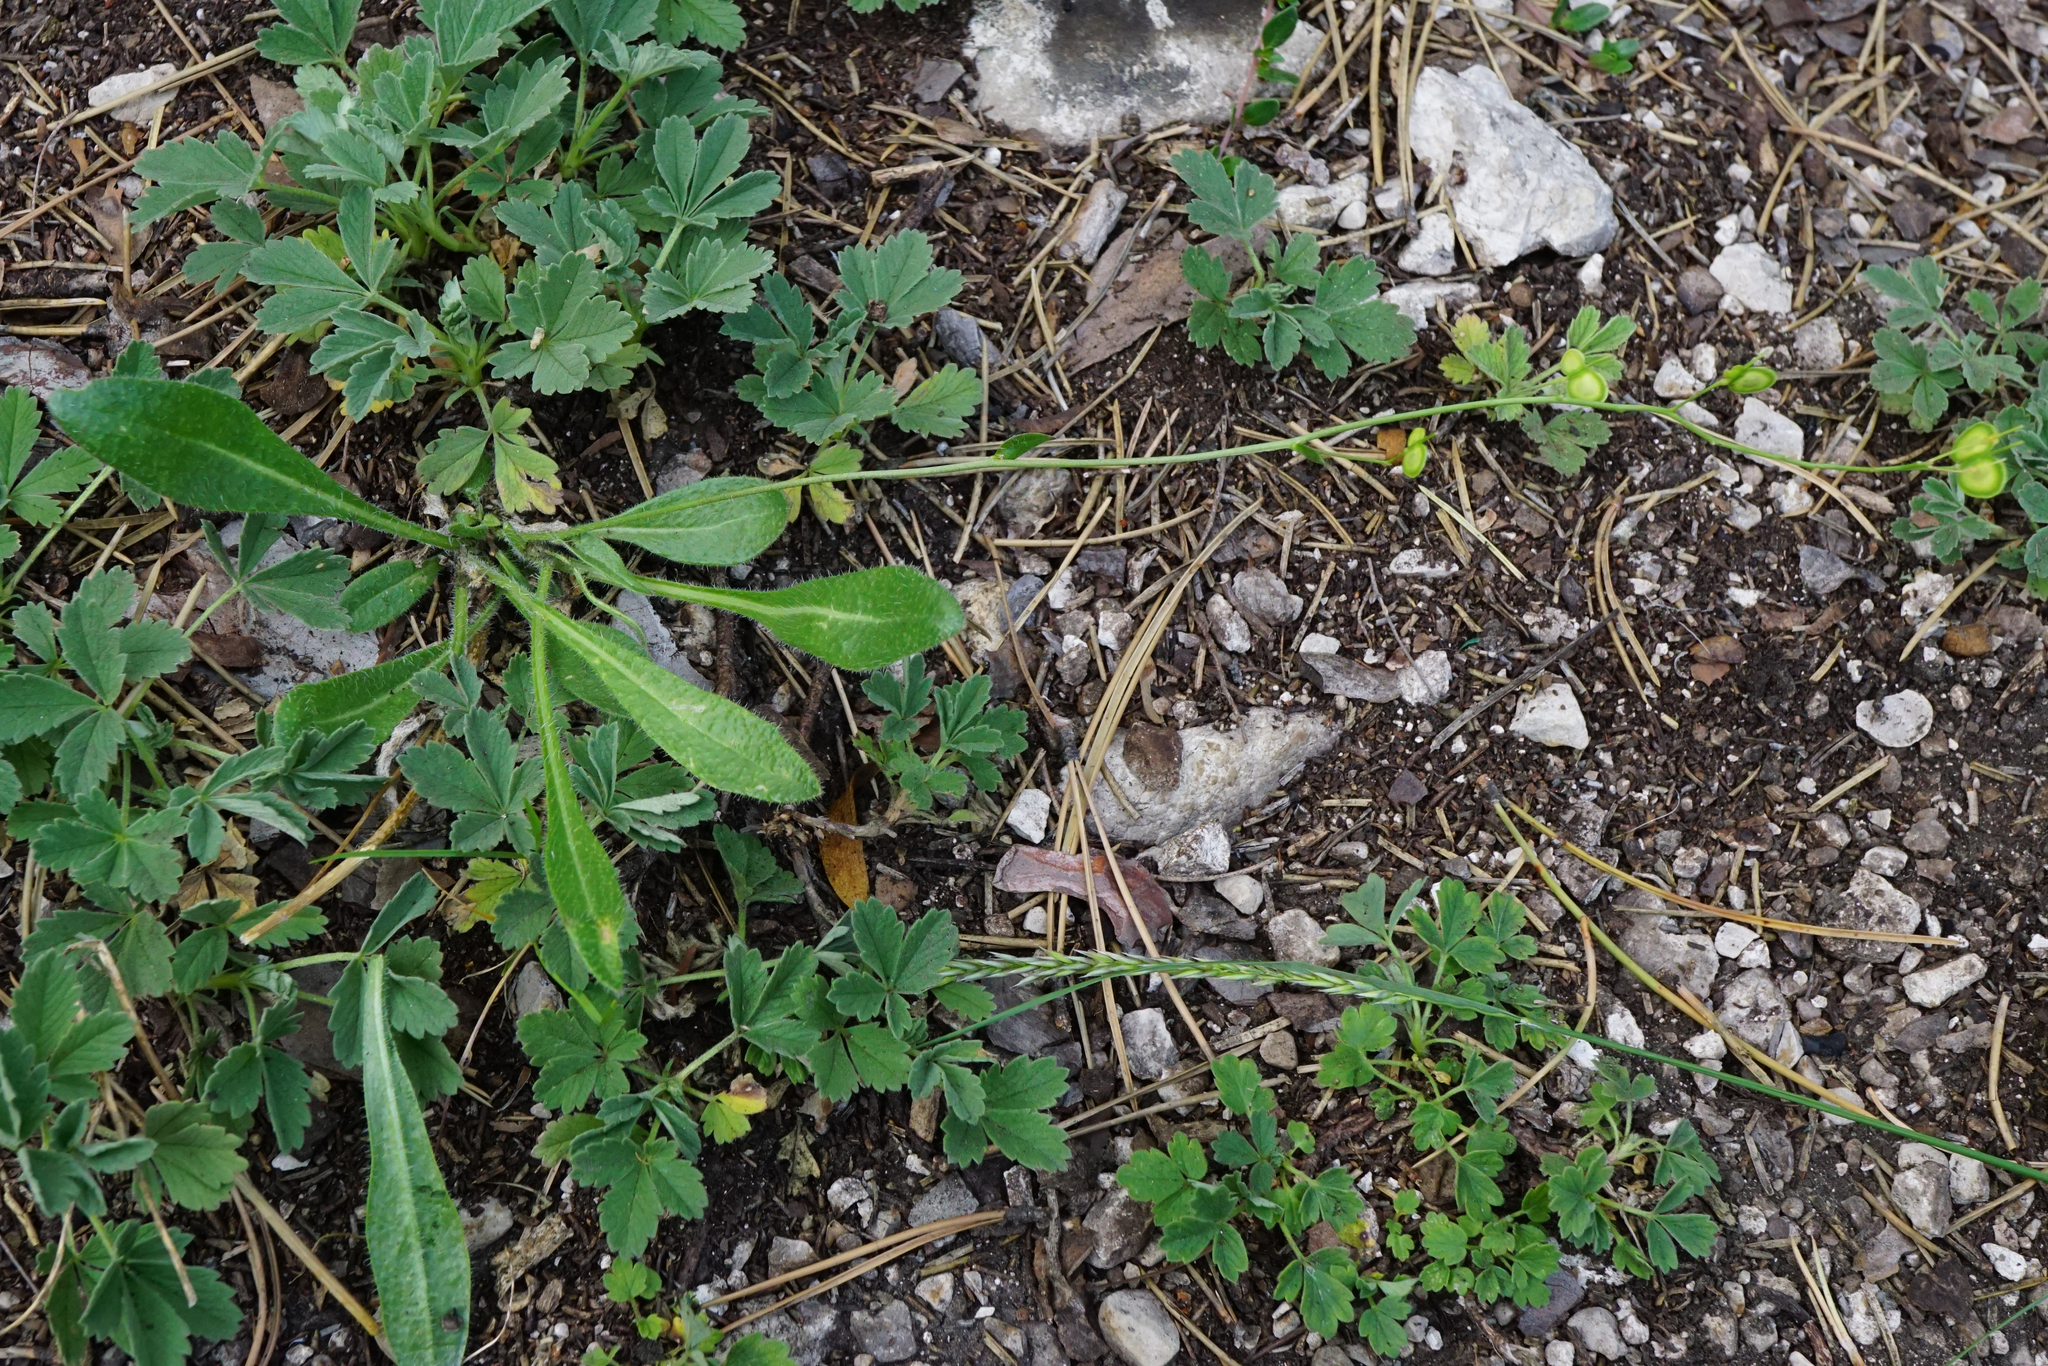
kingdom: Plantae
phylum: Tracheophyta
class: Magnoliopsida
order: Brassicales
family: Brassicaceae
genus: Biscutella
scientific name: Biscutella laevigata
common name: Buckler mustard
